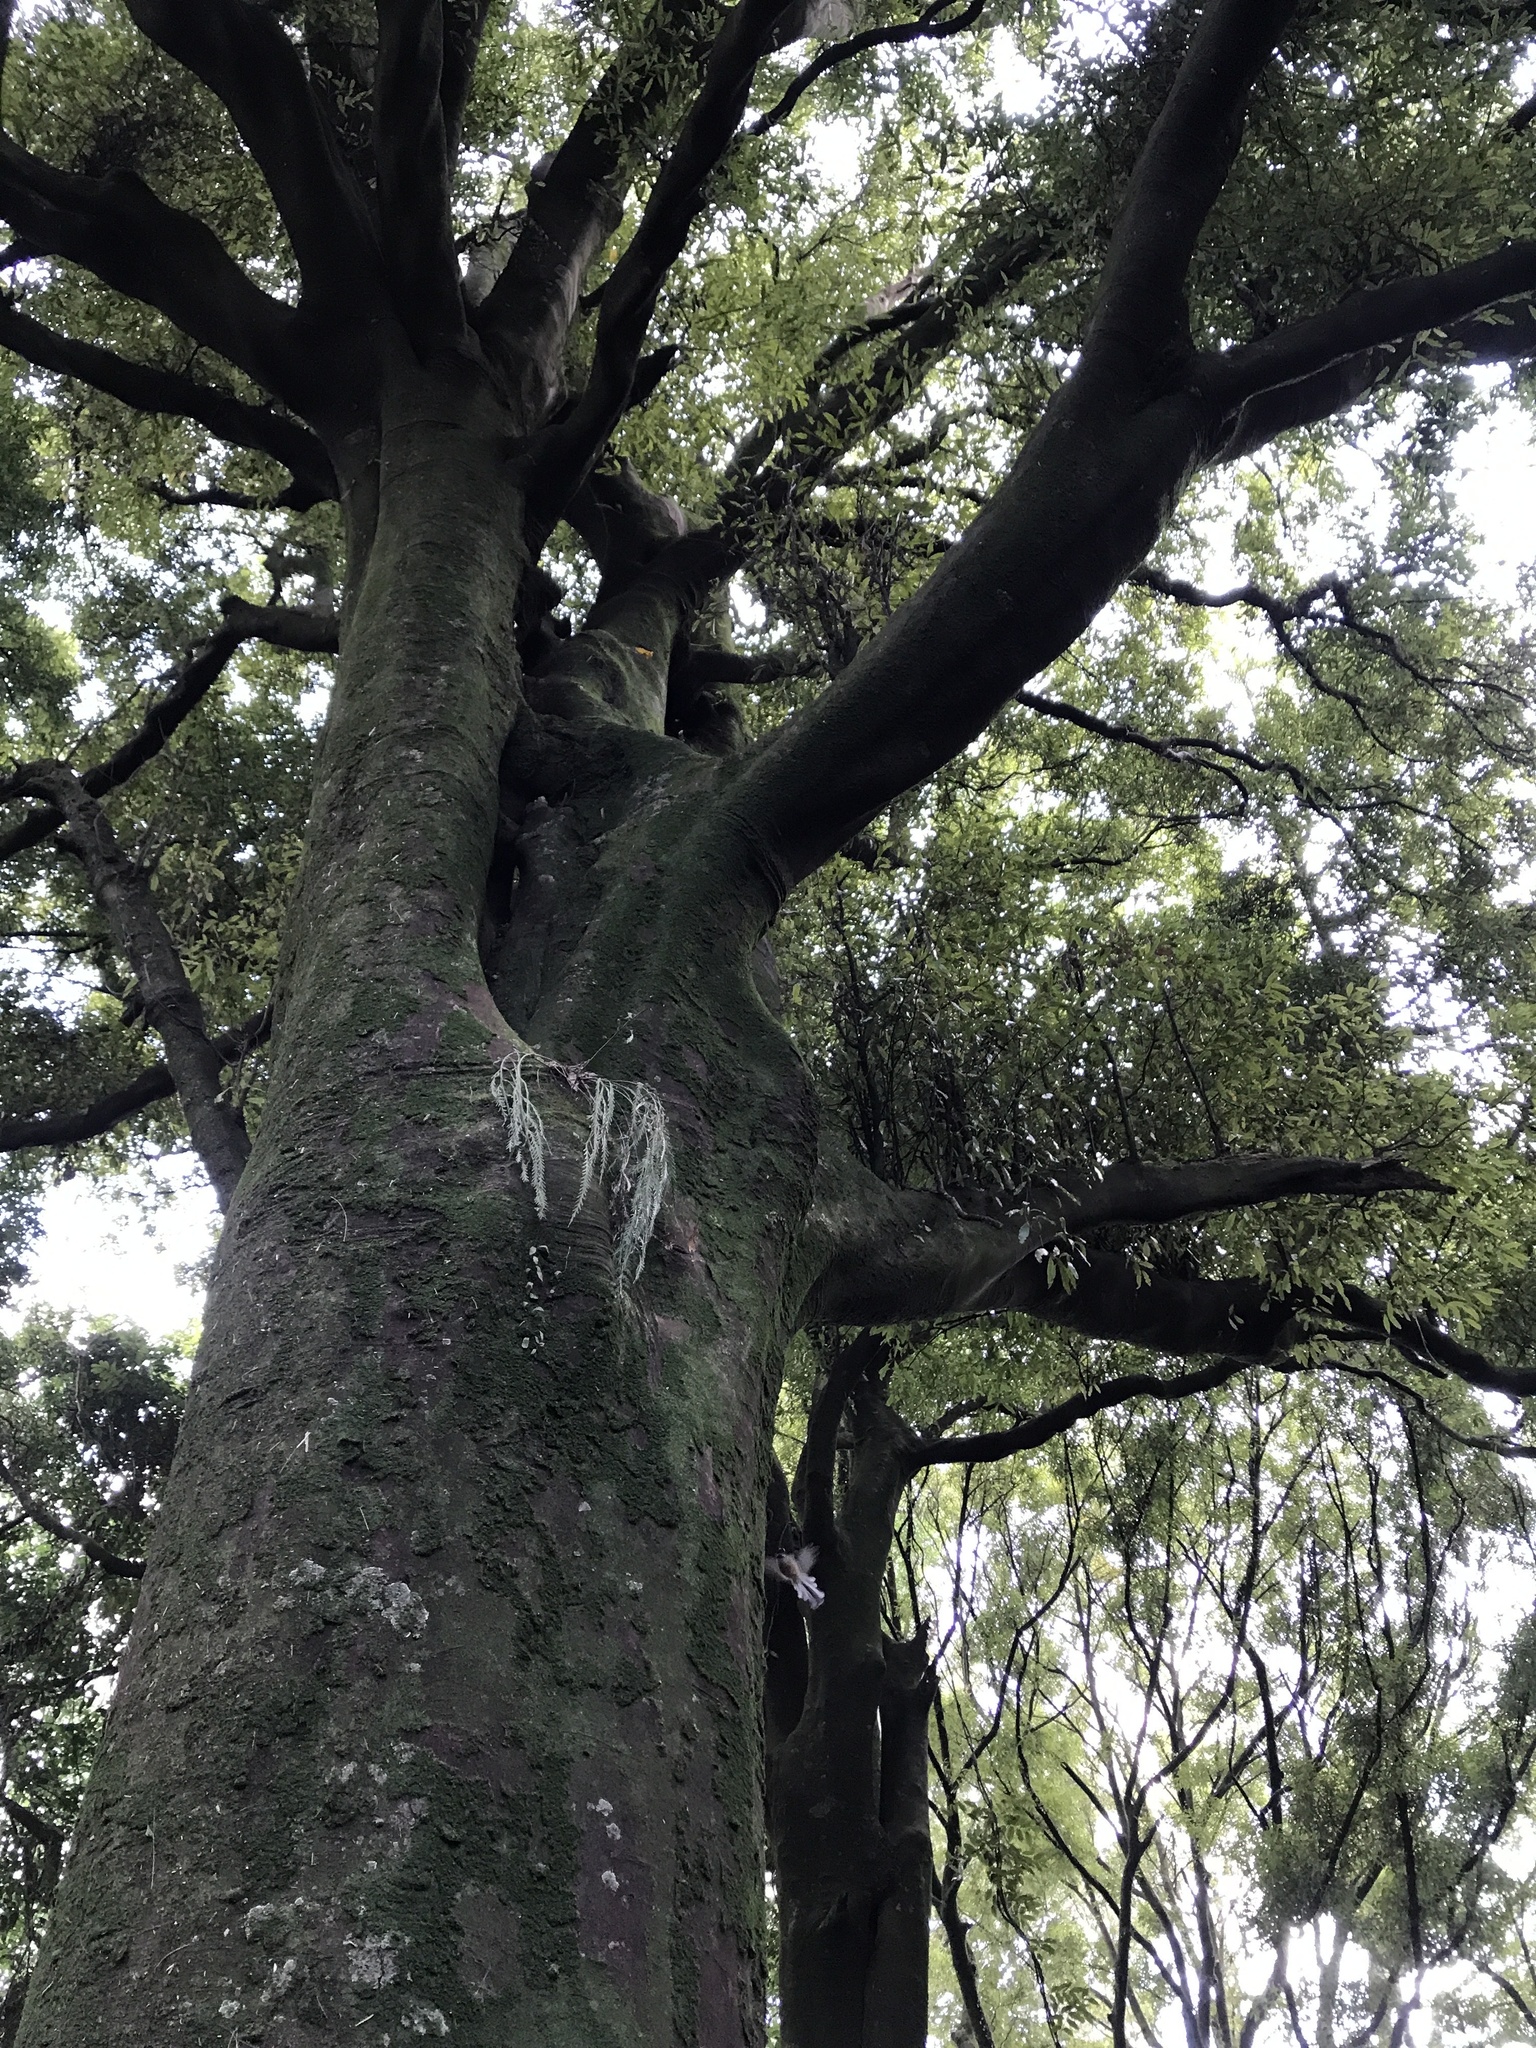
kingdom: Plantae
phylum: Tracheophyta
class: Magnoliopsida
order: Laurales
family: Lauraceae
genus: Beilschmiedia
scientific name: Beilschmiedia tawa
